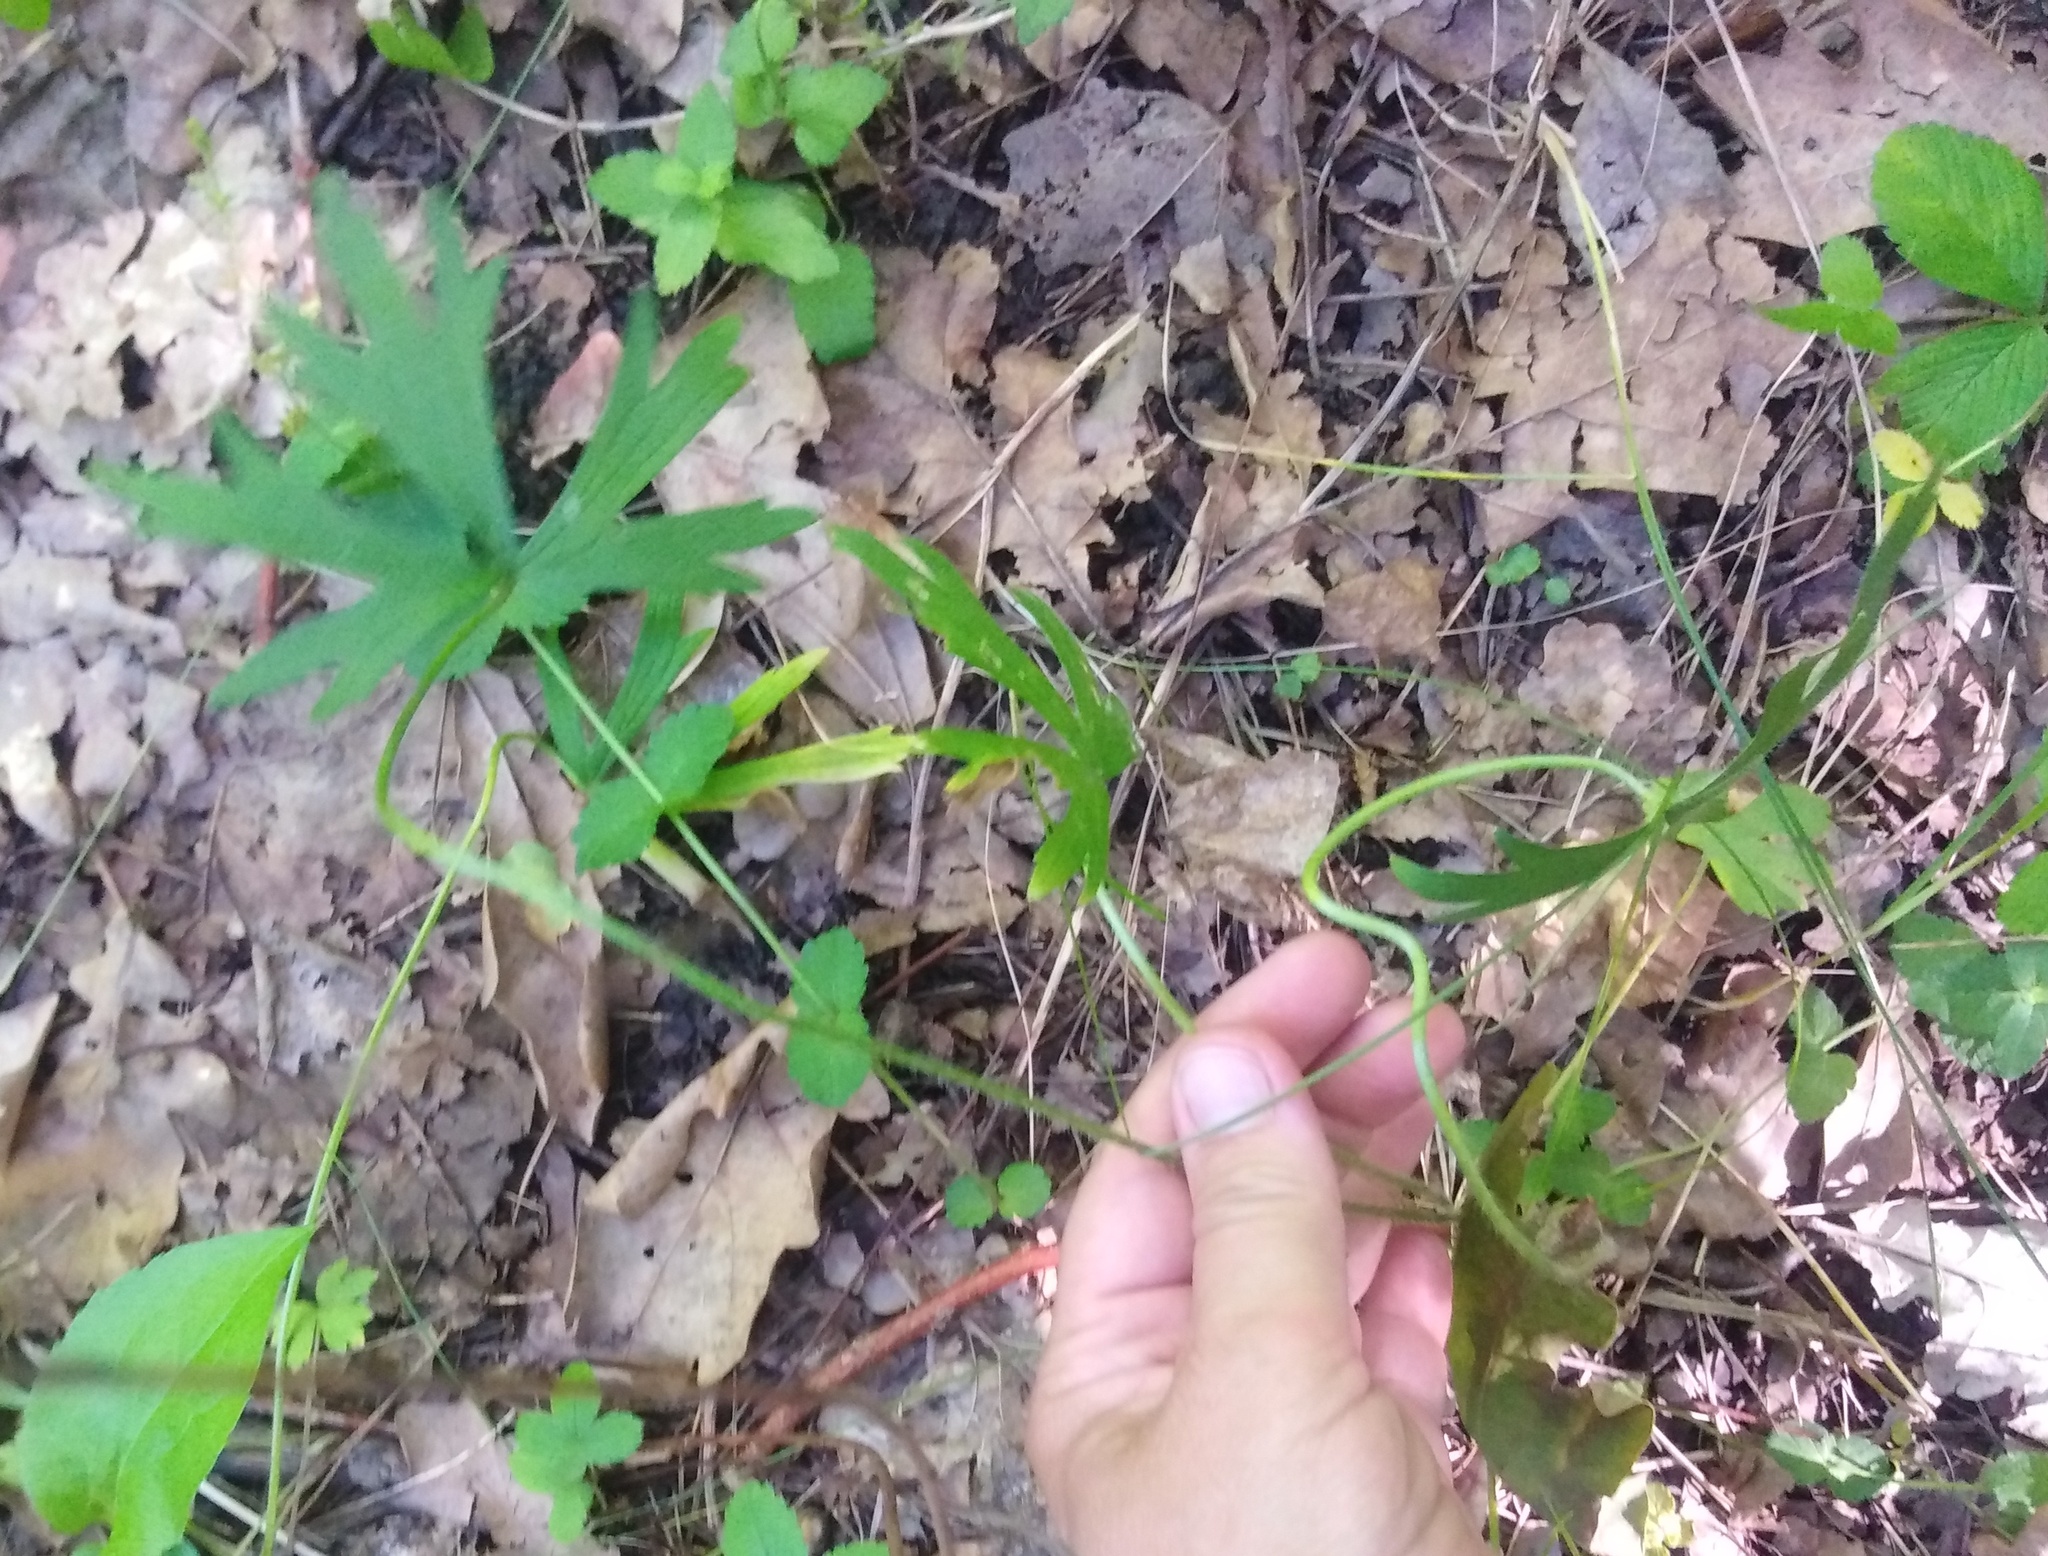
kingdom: Plantae
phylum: Tracheophyta
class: Magnoliopsida
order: Ranunculales
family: Ranunculaceae
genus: Pulsatilla
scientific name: Pulsatilla patens
